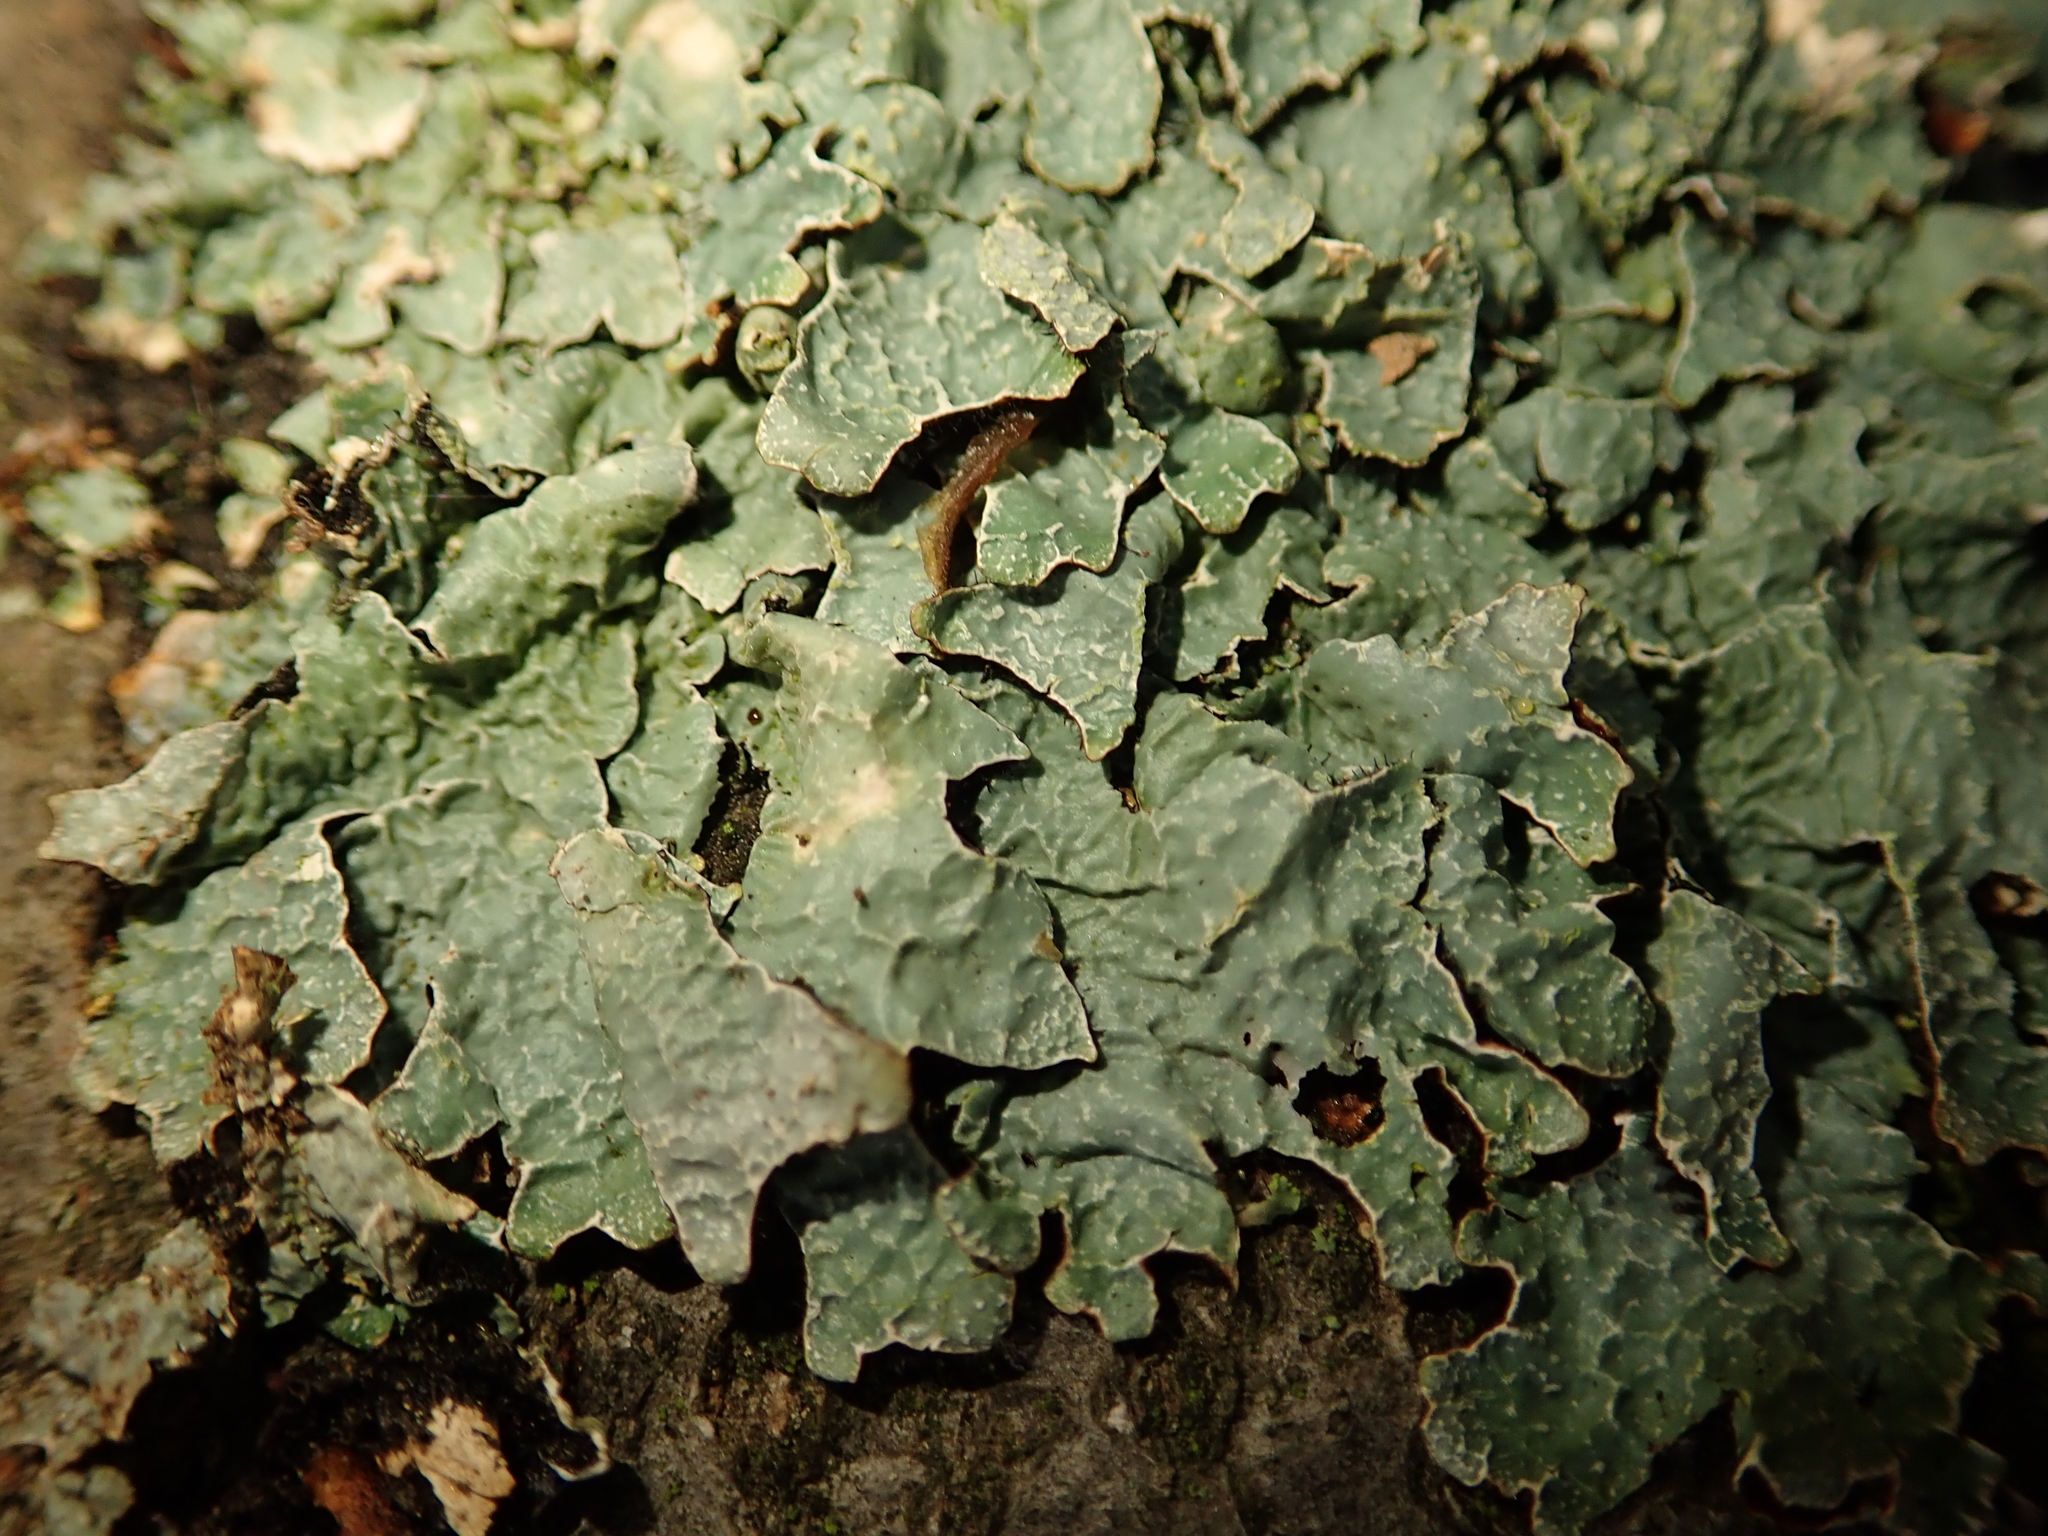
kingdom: Fungi
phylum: Ascomycota
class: Lecanoromycetes
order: Lecanorales
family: Parmeliaceae
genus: Parmelia
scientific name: Parmelia sulcata
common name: Netted shield lichen
